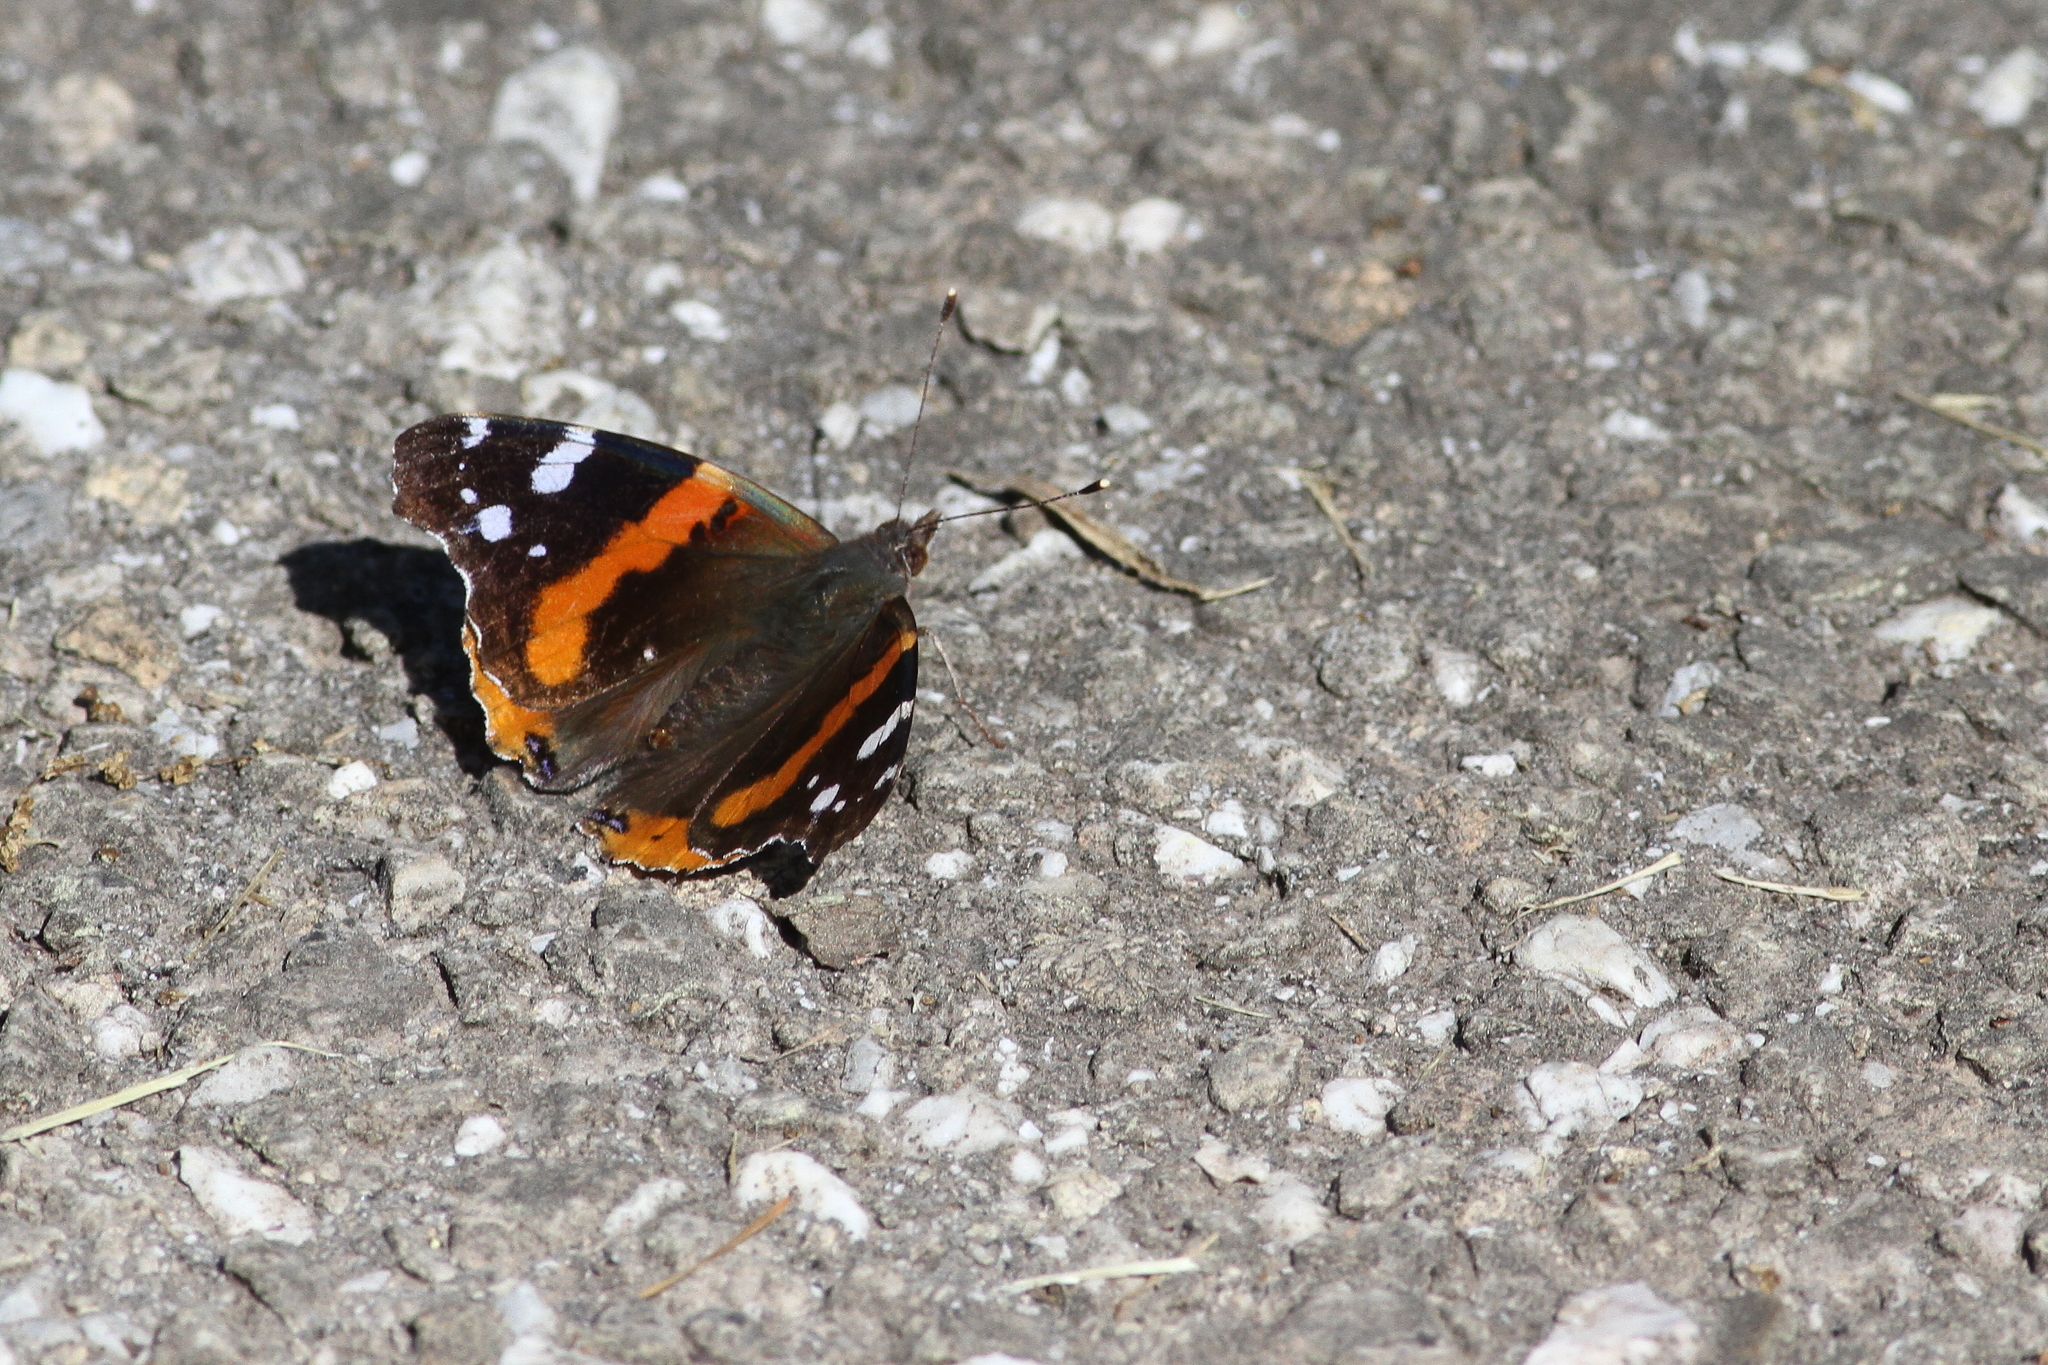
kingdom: Animalia
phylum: Arthropoda
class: Insecta
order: Lepidoptera
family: Nymphalidae
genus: Vanessa
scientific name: Vanessa atalanta
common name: Red admiral
